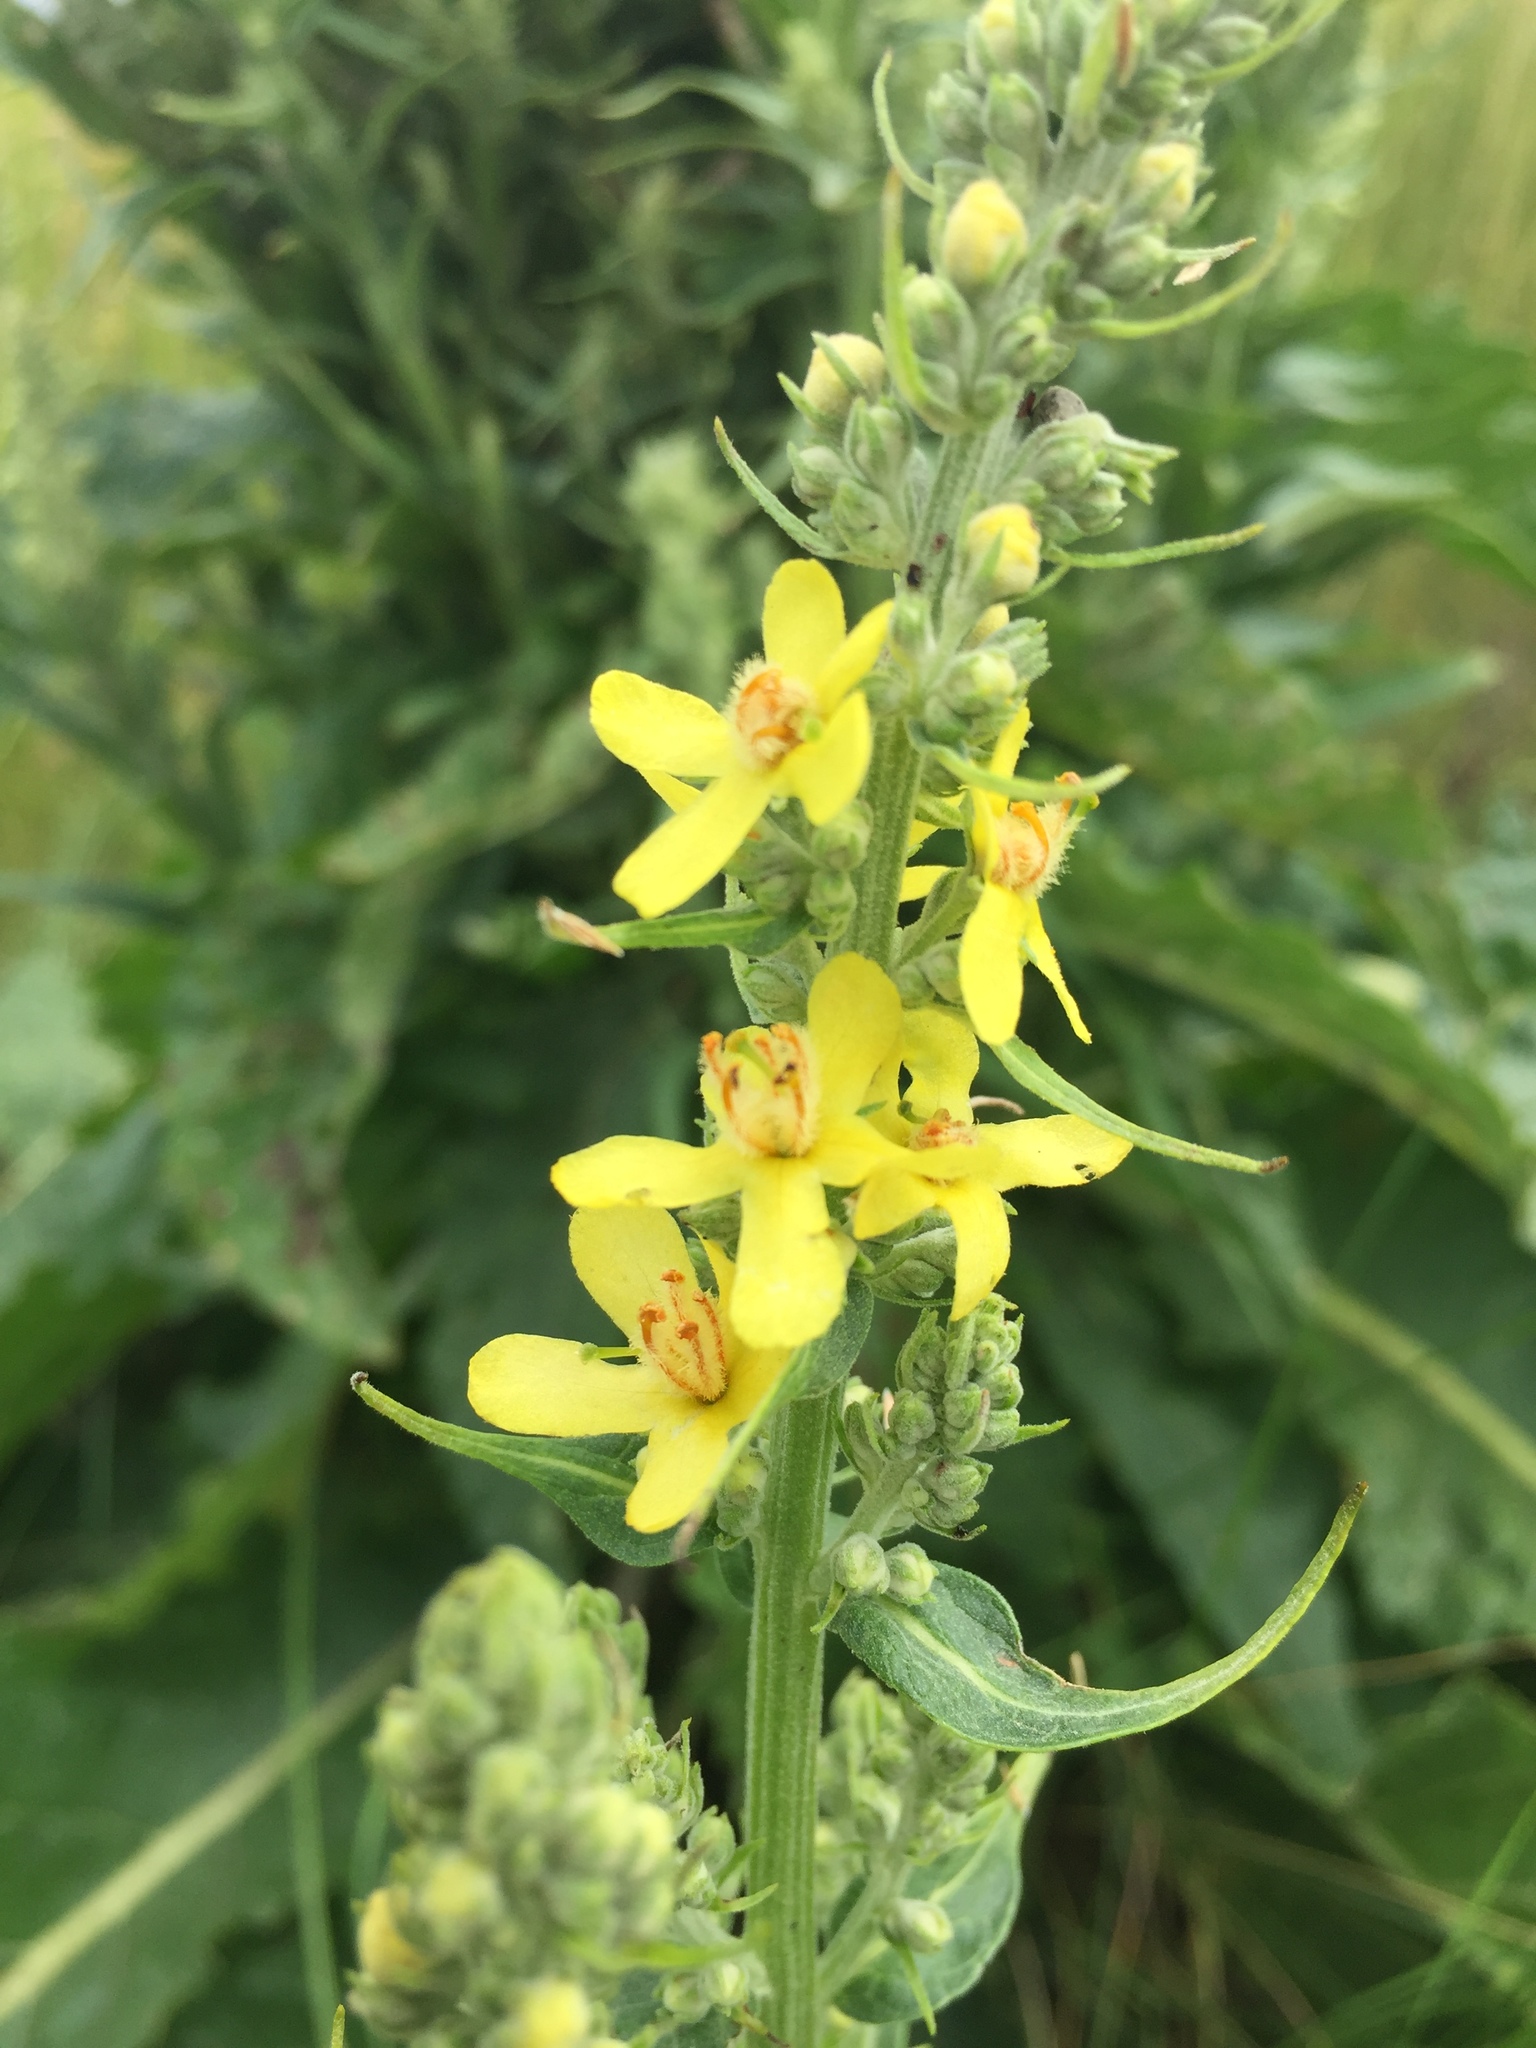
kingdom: Plantae
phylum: Tracheophyta
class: Magnoliopsida
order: Lamiales
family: Scrophulariaceae
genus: Verbascum
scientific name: Verbascum lychnitis
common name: White mullein
